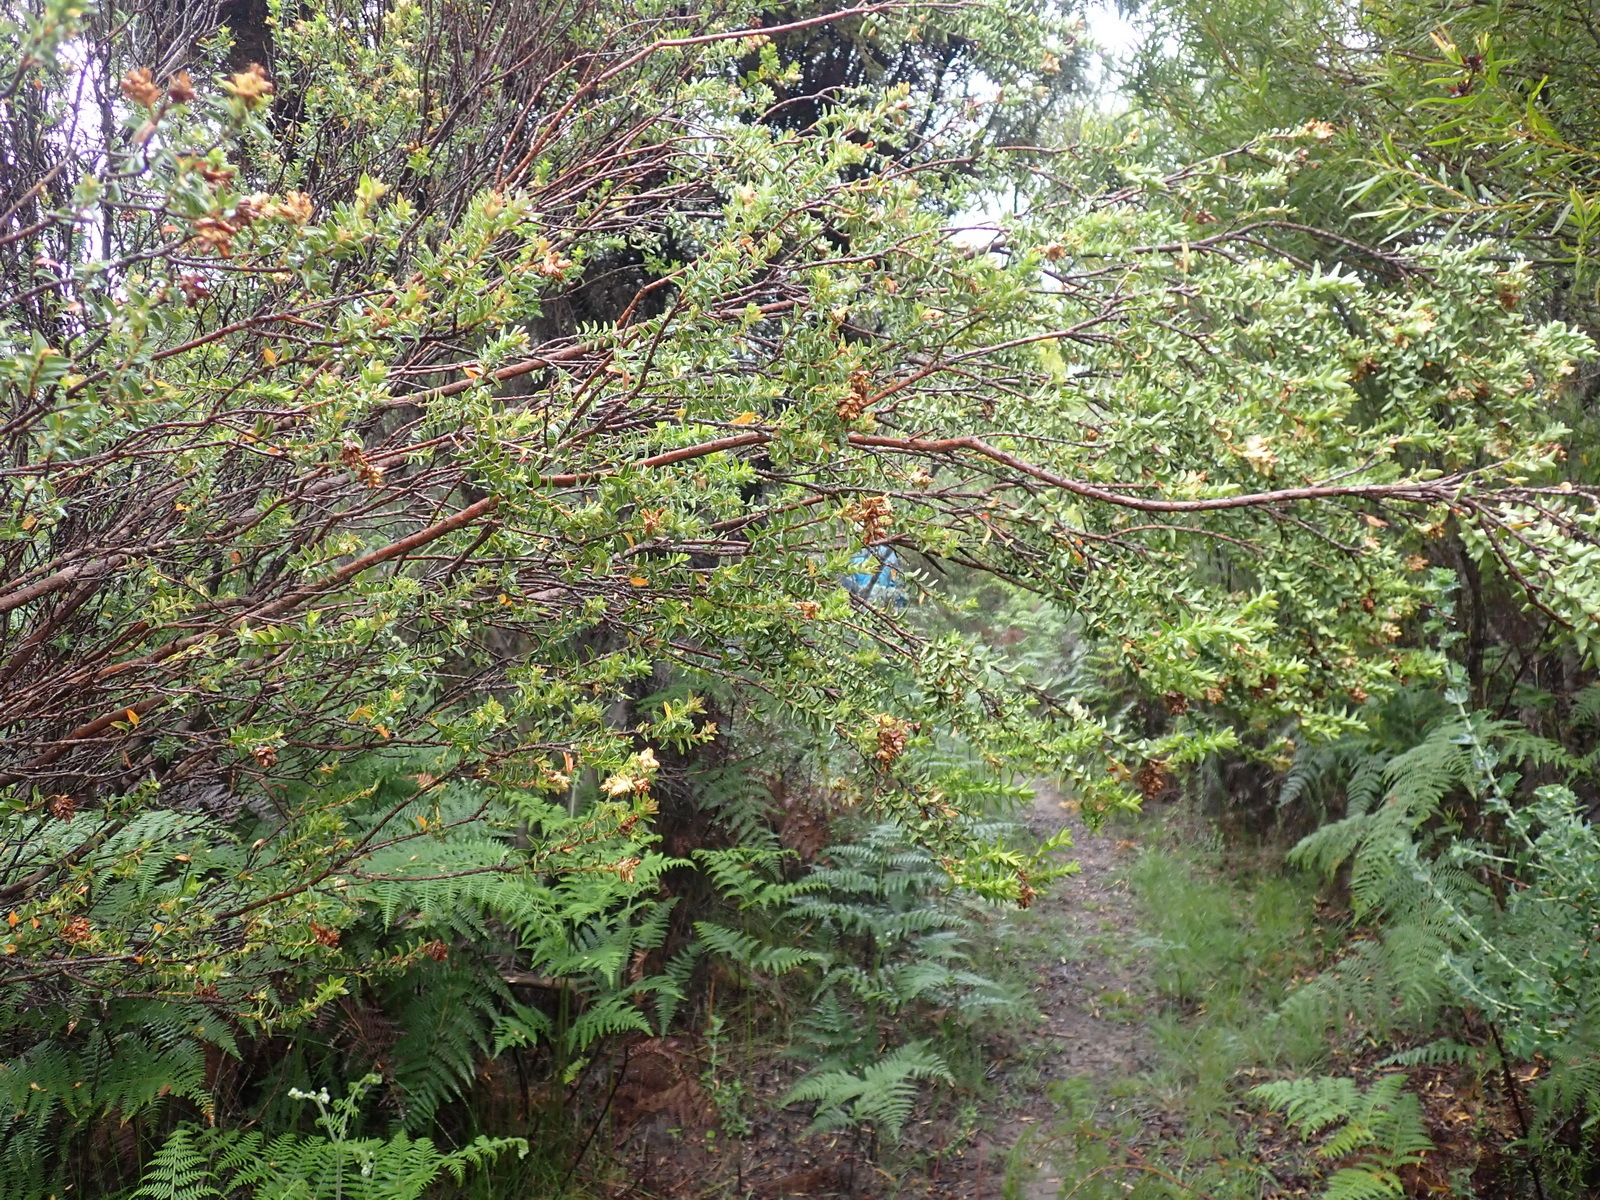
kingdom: Plantae
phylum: Tracheophyta
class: Magnoliopsida
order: Myrtales
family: Penaeaceae
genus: Penaea
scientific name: Penaea cneorum
